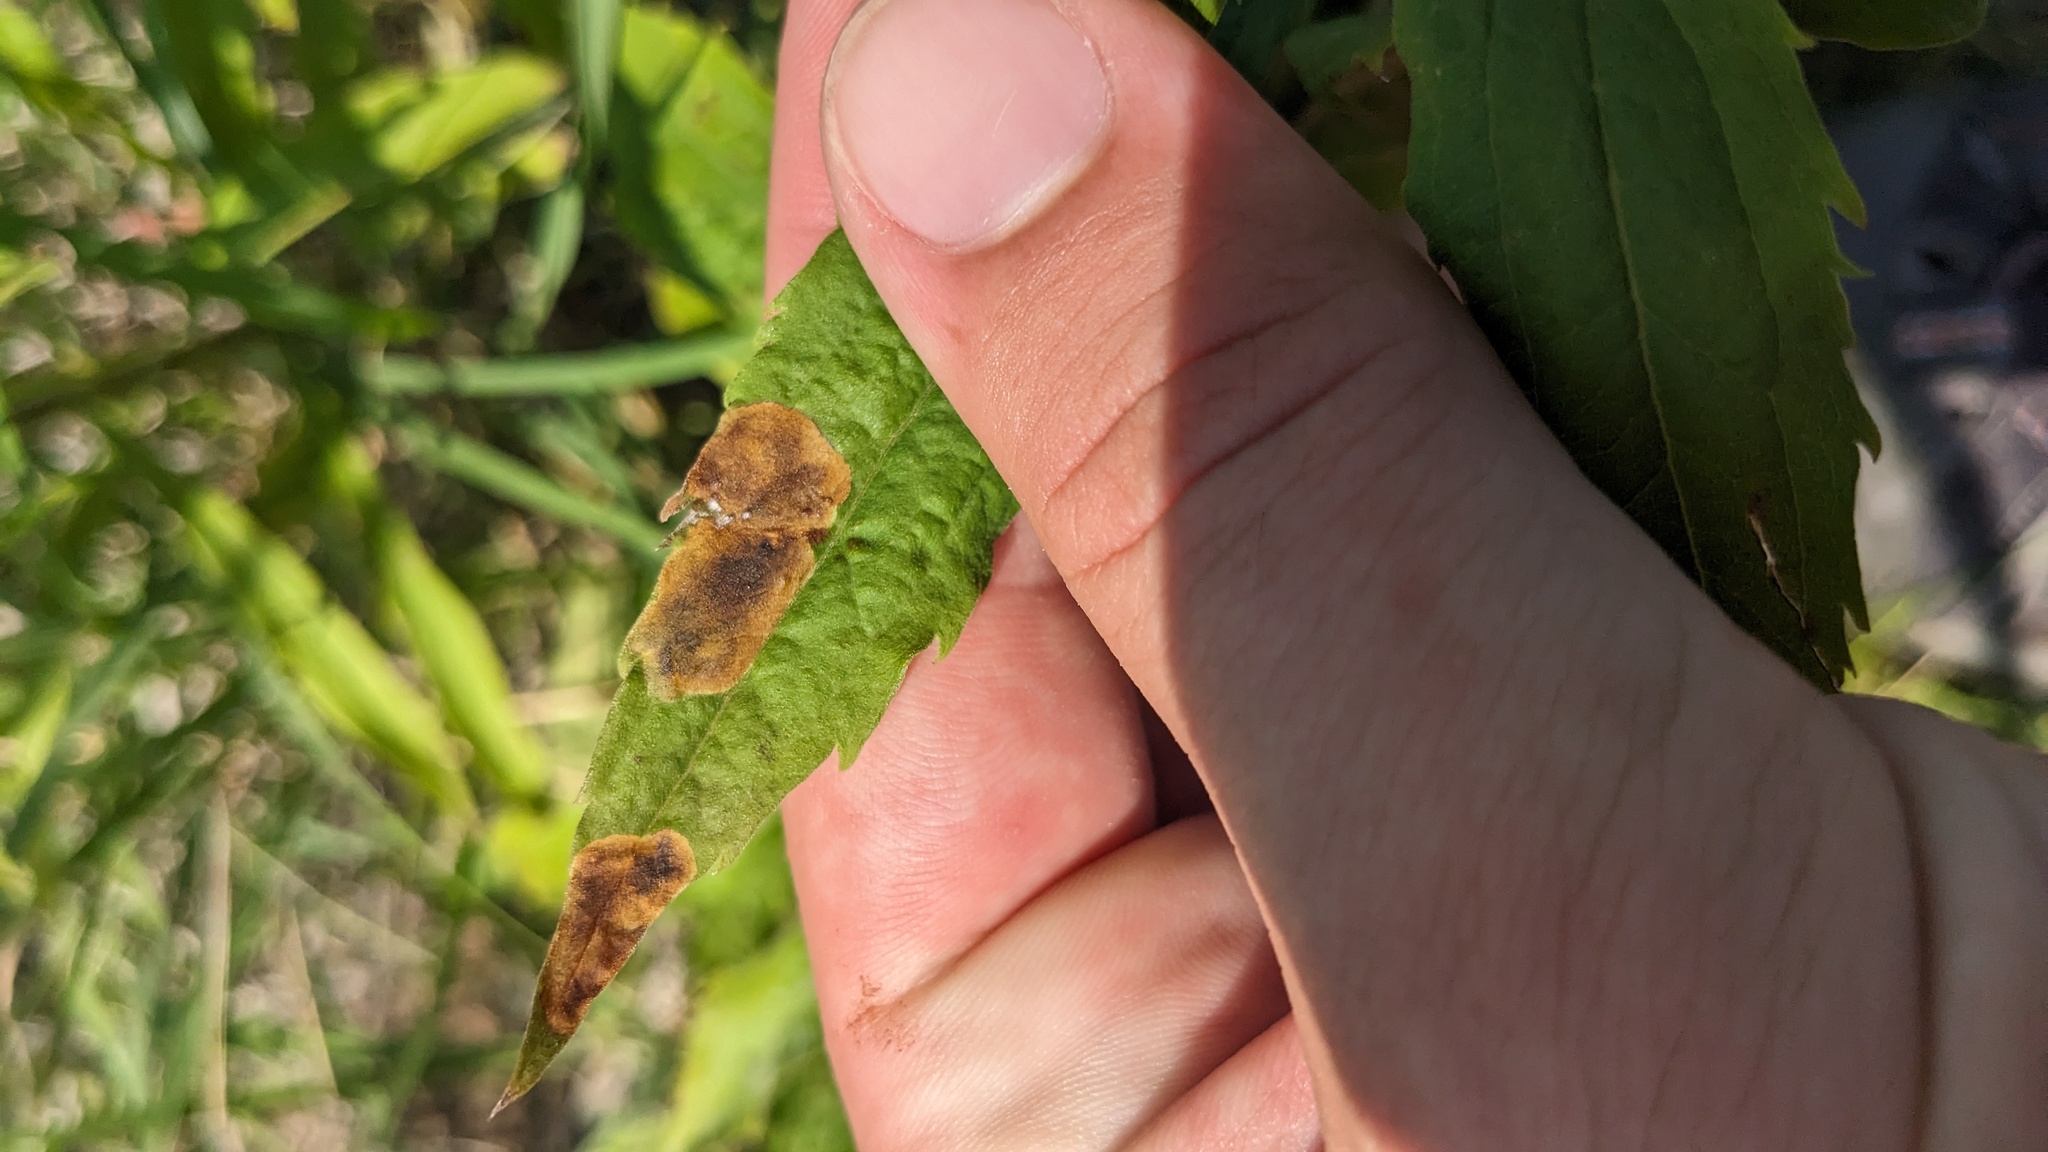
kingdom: Animalia
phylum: Arthropoda
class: Insecta
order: Diptera
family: Agromyzidae
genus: Nemorimyza
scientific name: Nemorimyza posticata
